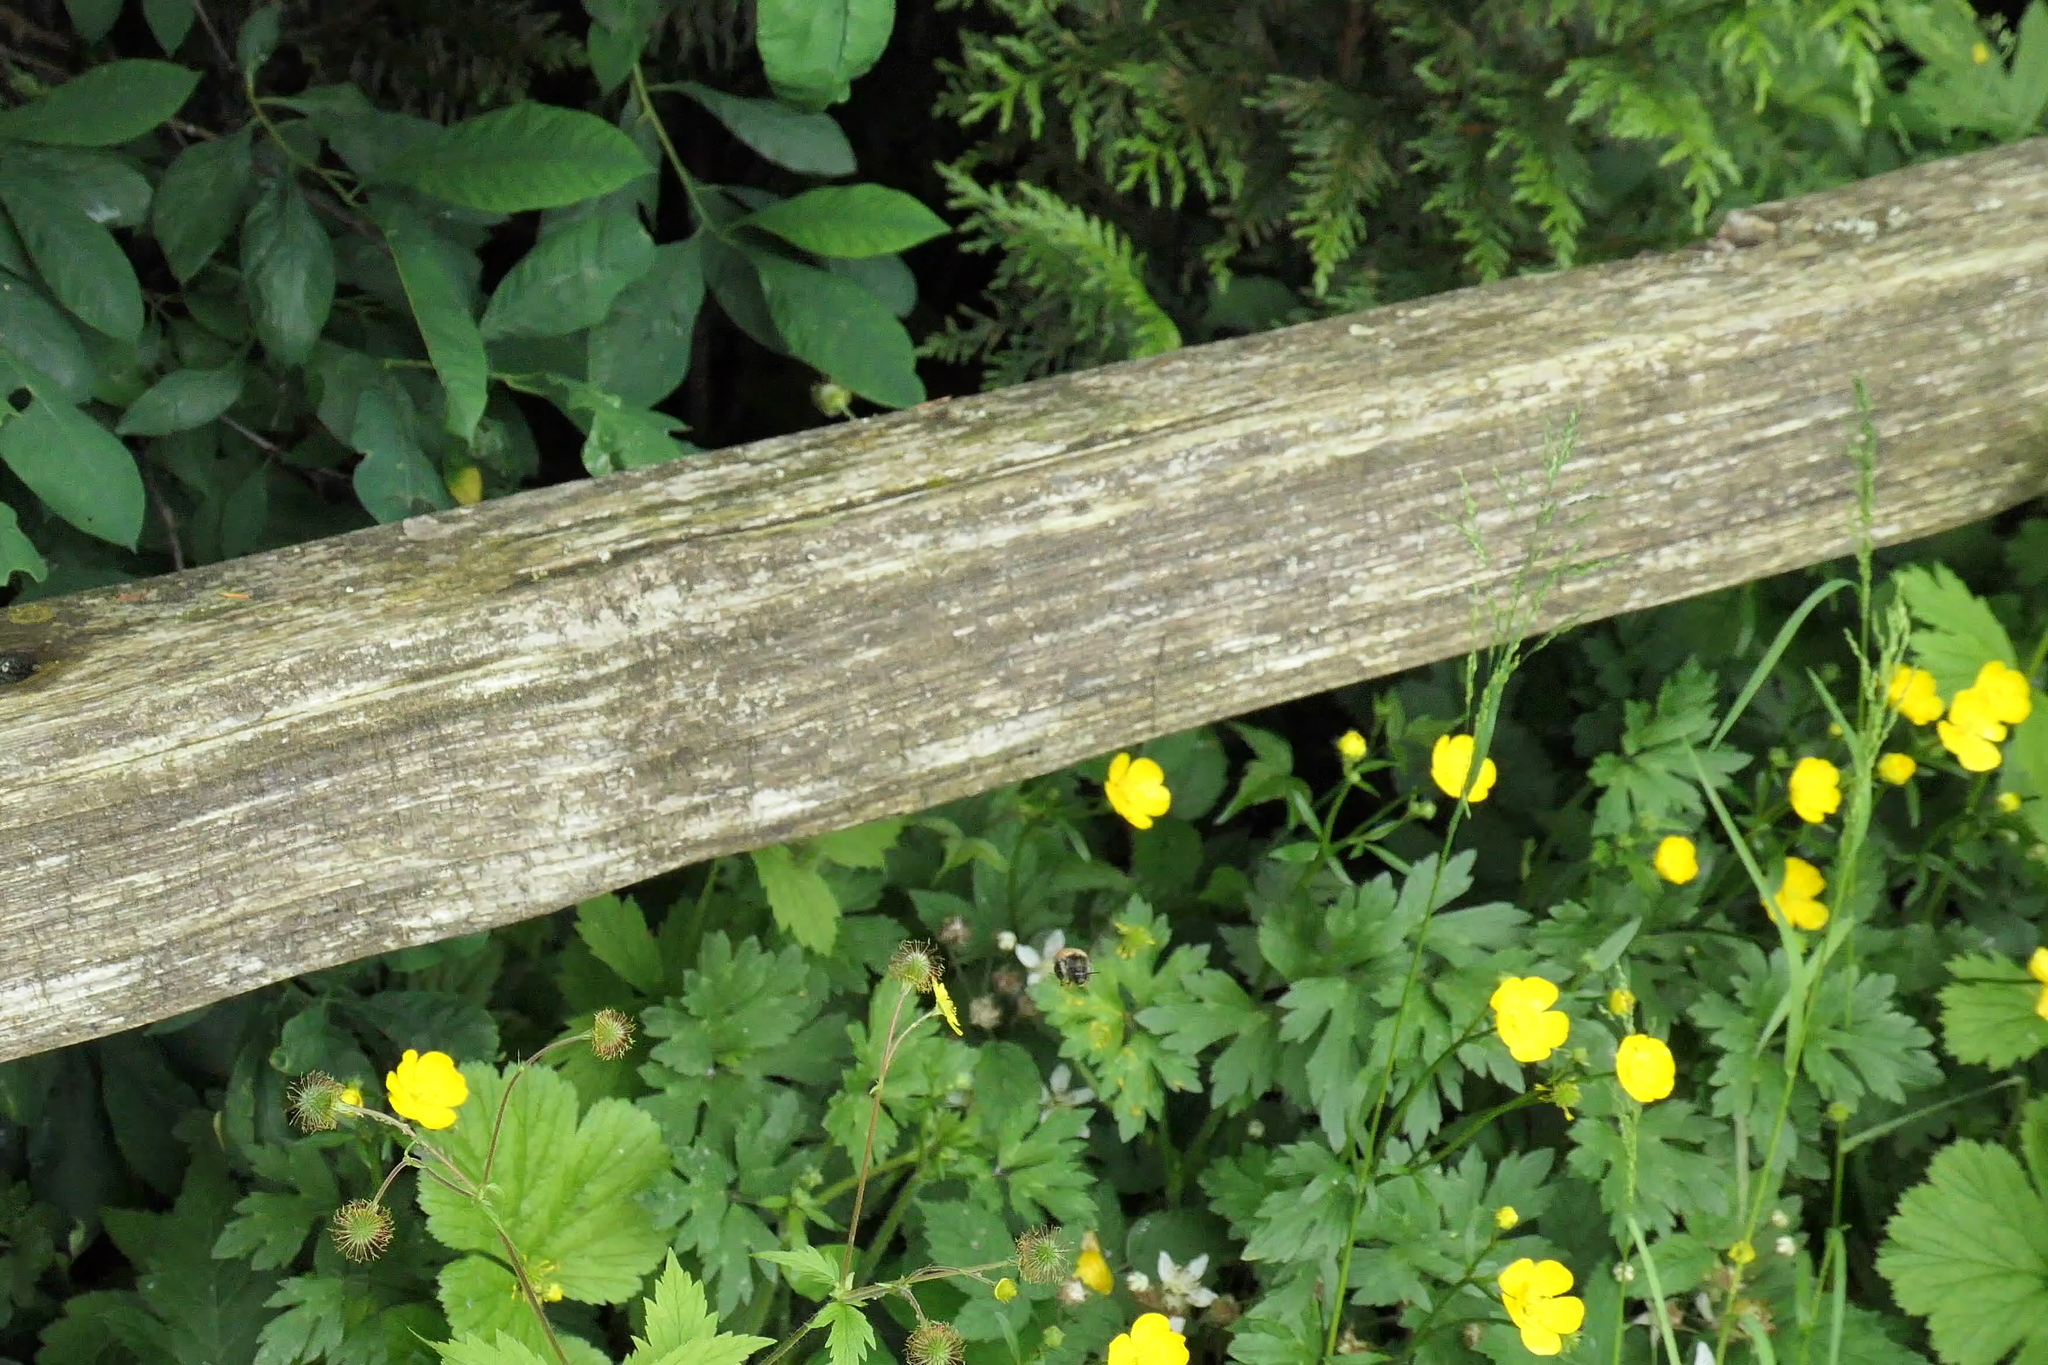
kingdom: Animalia
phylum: Arthropoda
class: Insecta
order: Hymenoptera
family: Apidae
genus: Bombus
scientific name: Bombus melanopygus
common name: Black tail bumble bee
